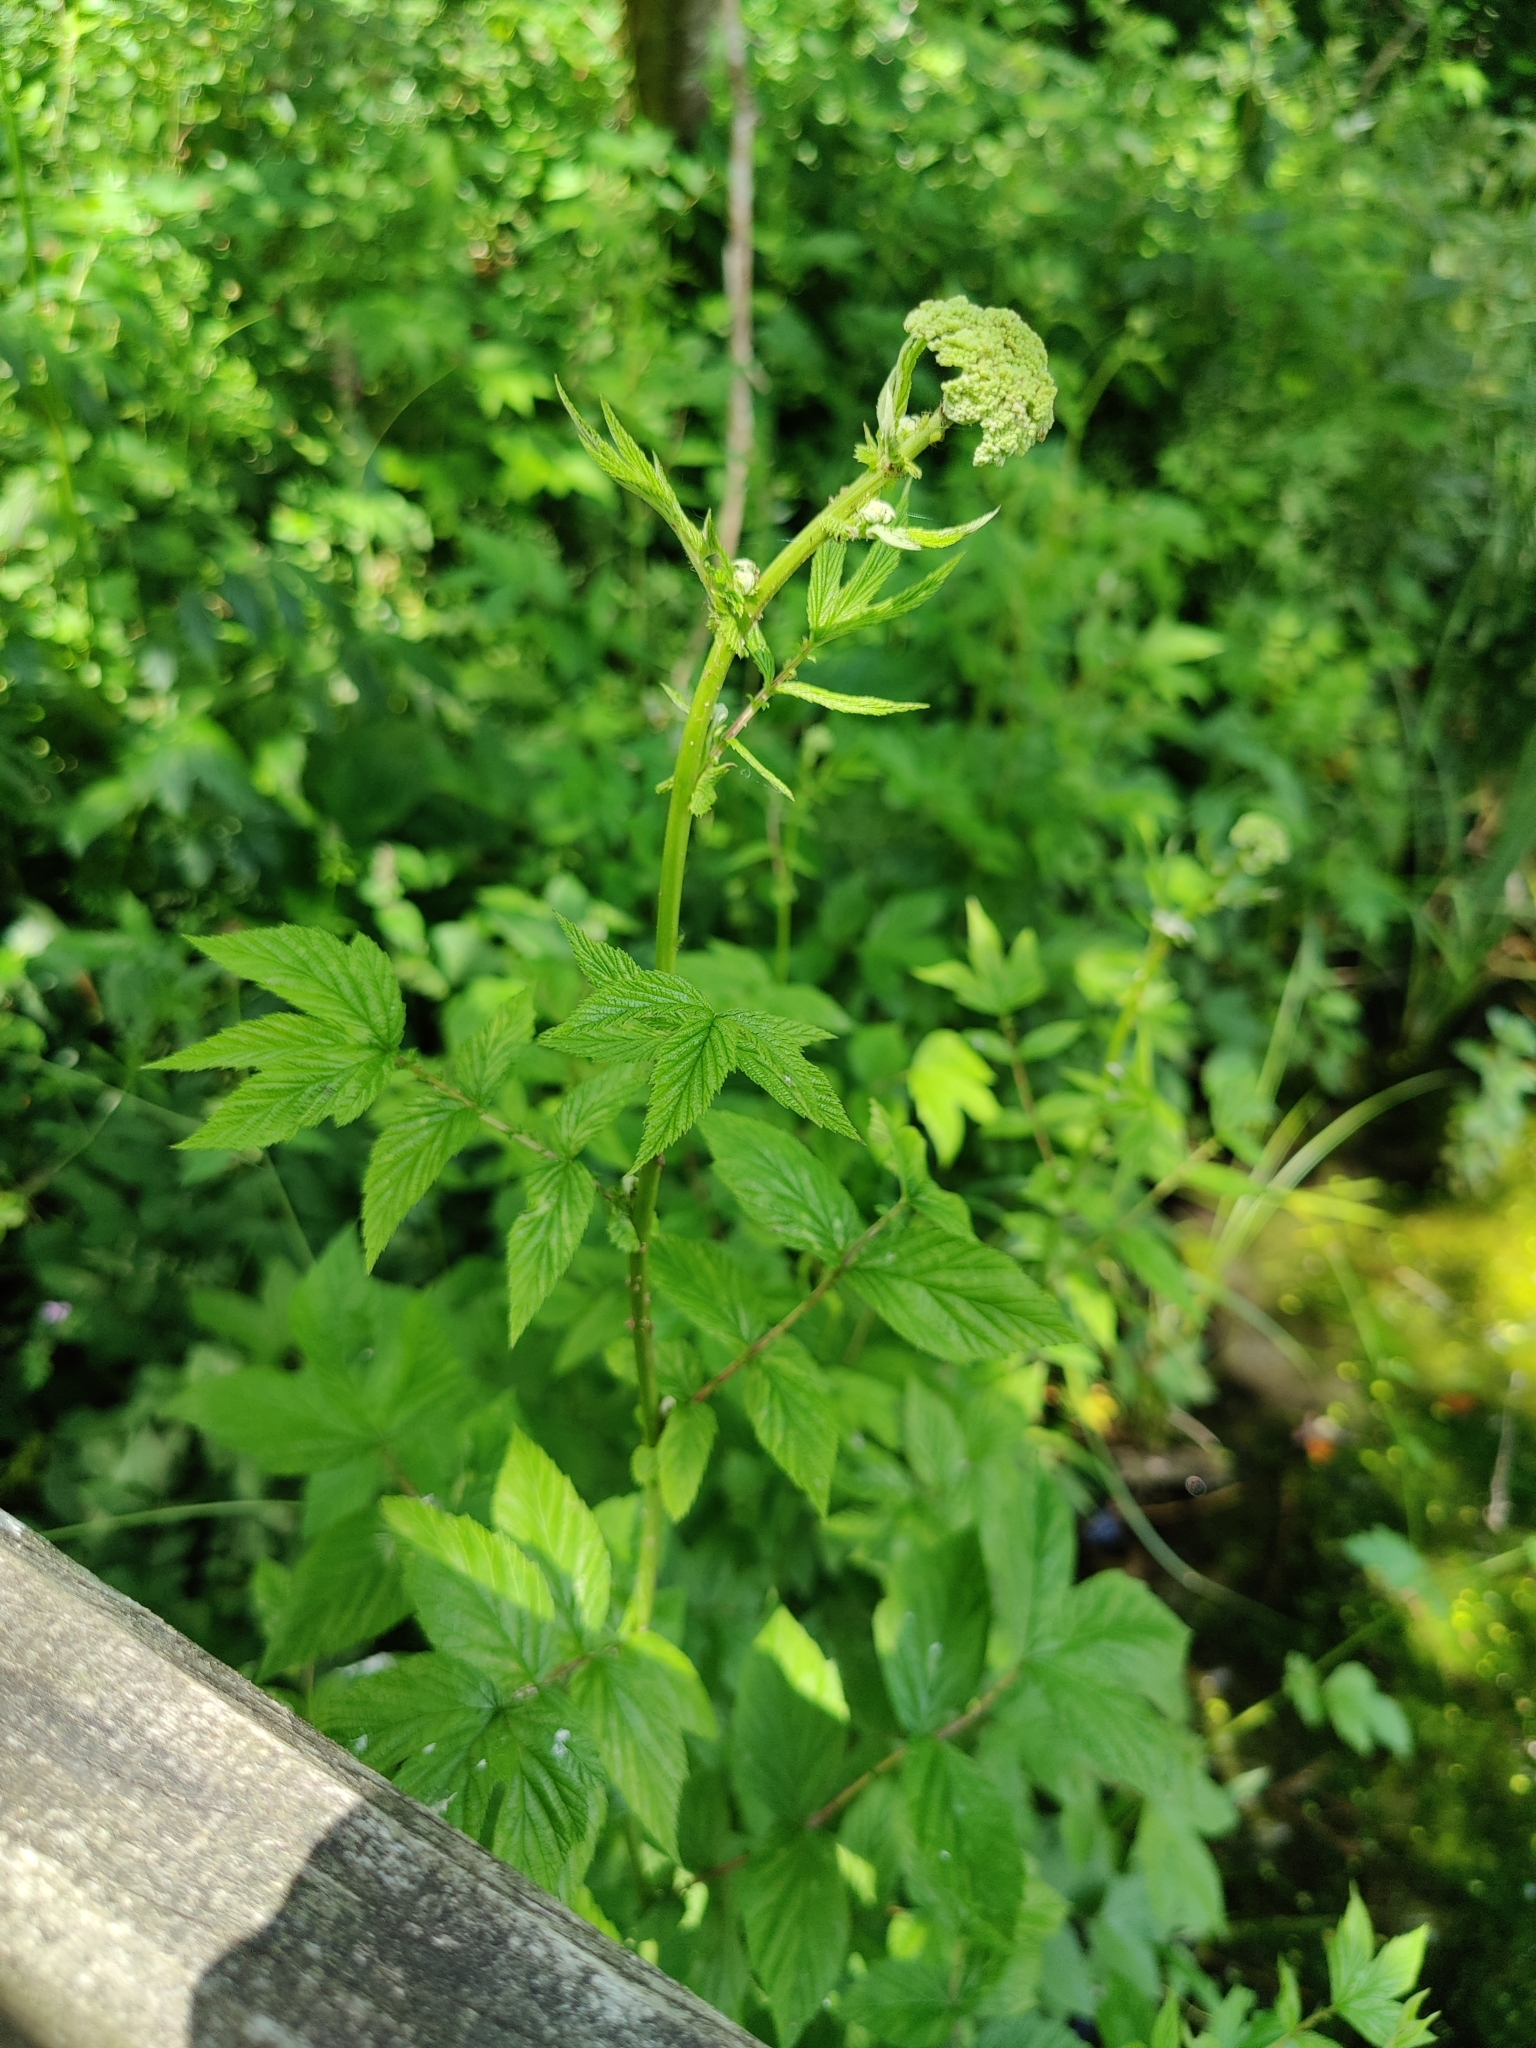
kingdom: Plantae
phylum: Tracheophyta
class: Magnoliopsida
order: Rosales
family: Rosaceae
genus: Filipendula
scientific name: Filipendula ulmaria
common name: Meadowsweet
